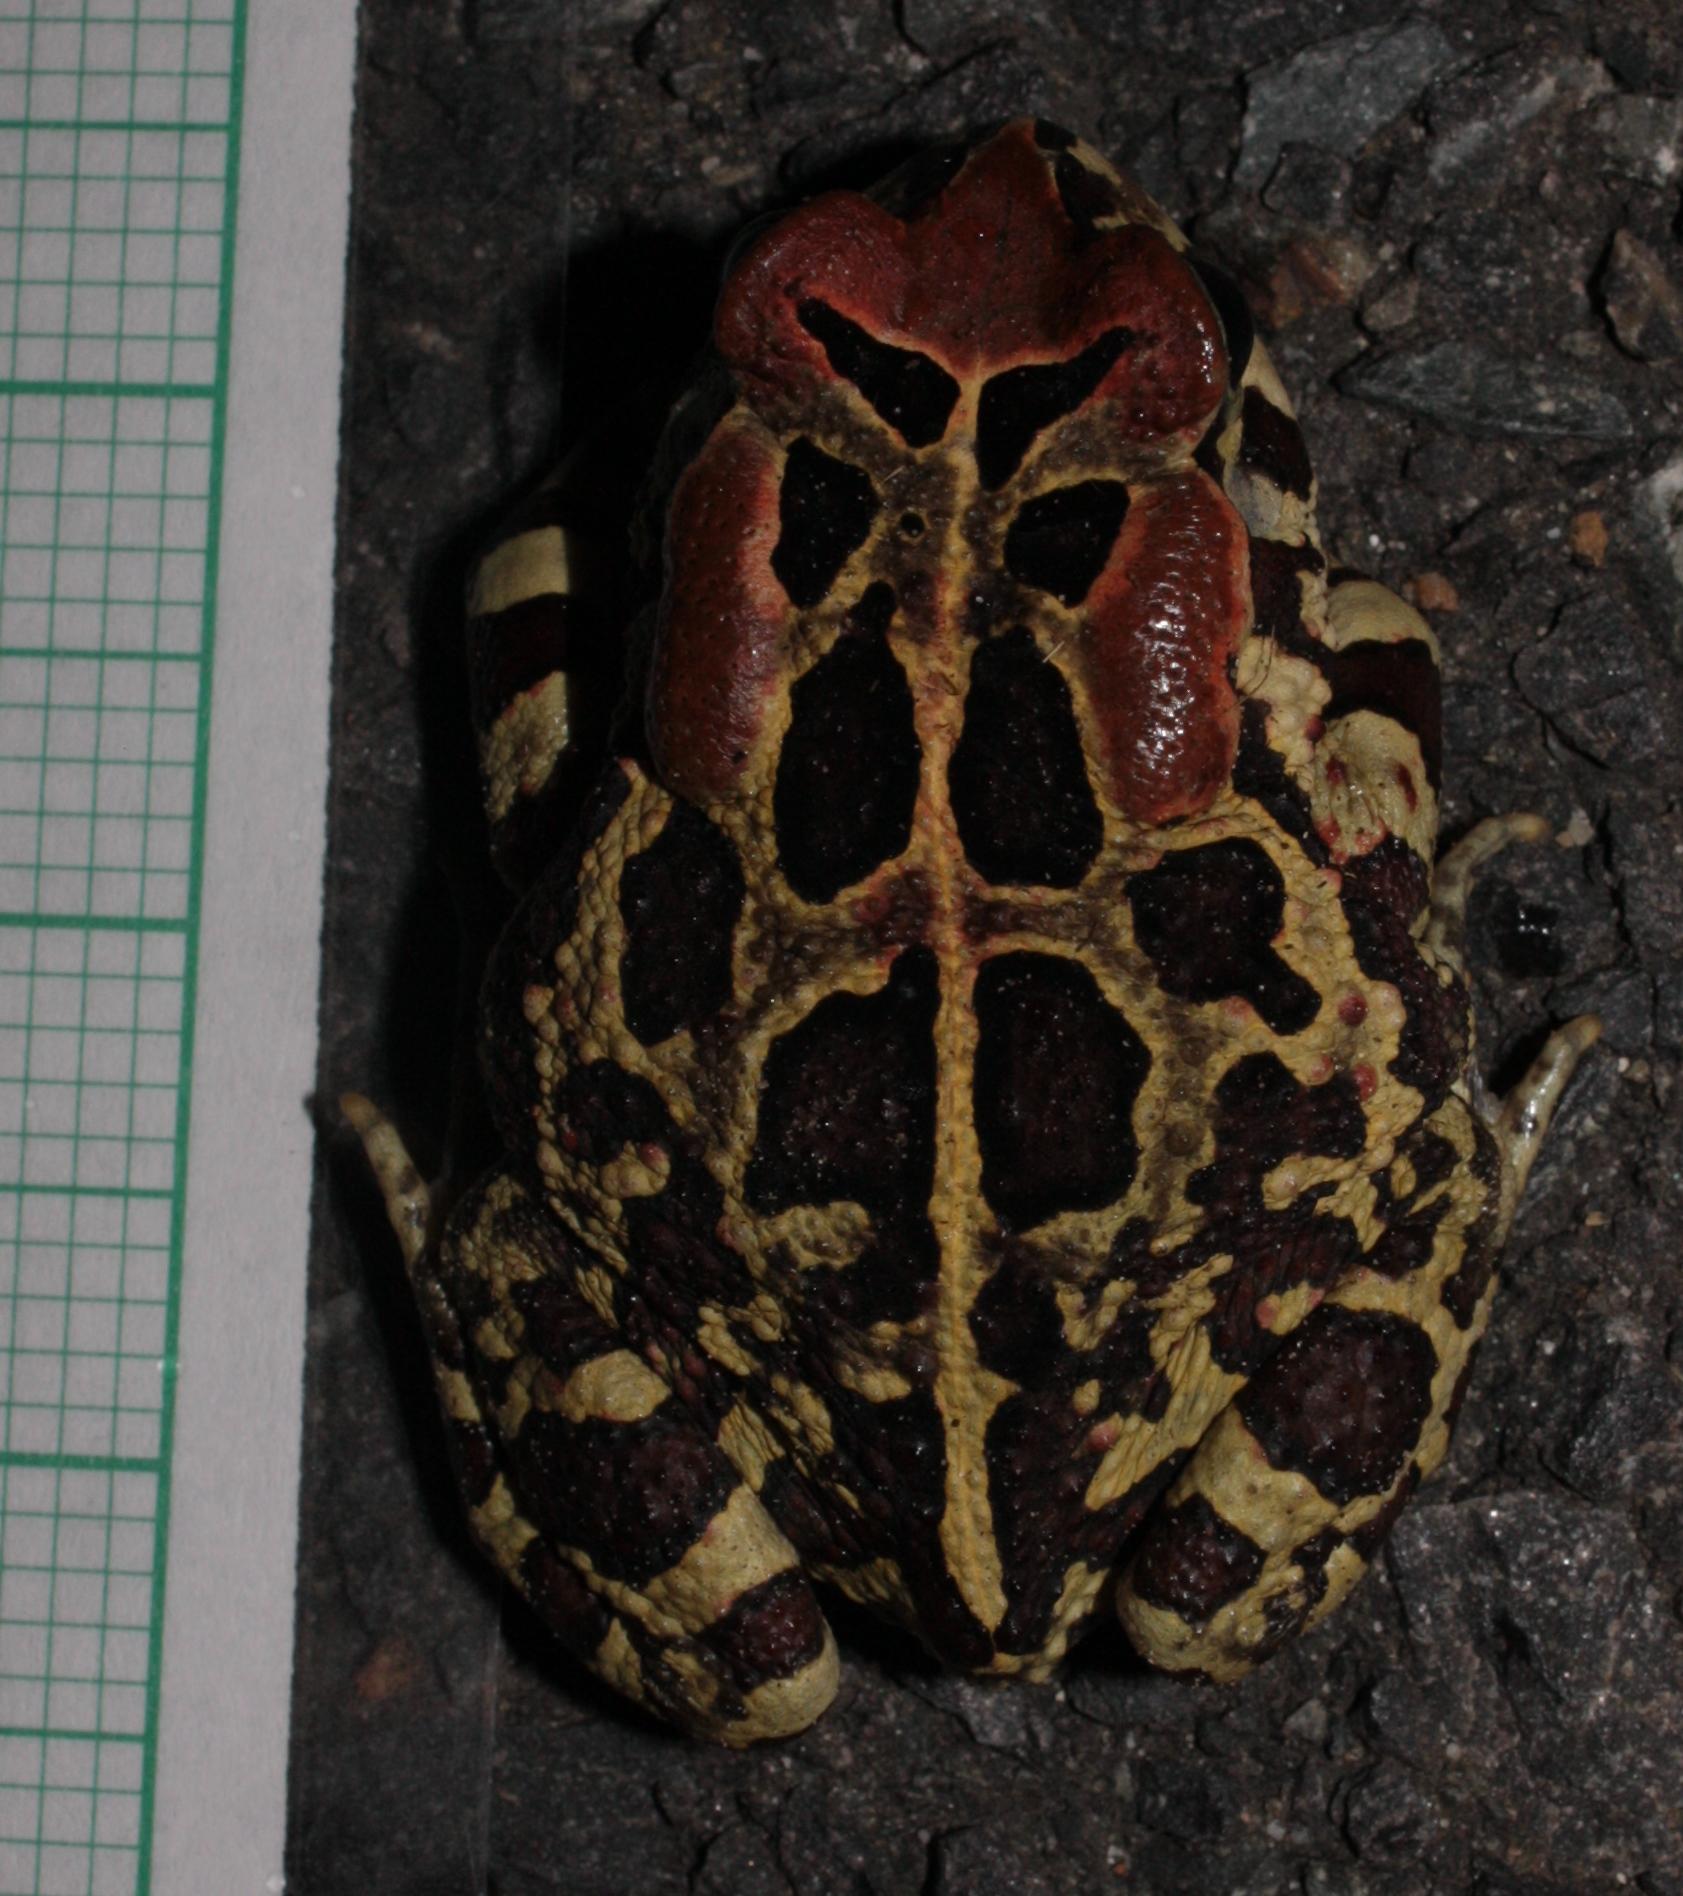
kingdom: Animalia
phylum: Chordata
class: Amphibia
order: Anura
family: Bufonidae
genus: Sclerophrys
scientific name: Sclerophrys pantherina
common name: Panther toad
